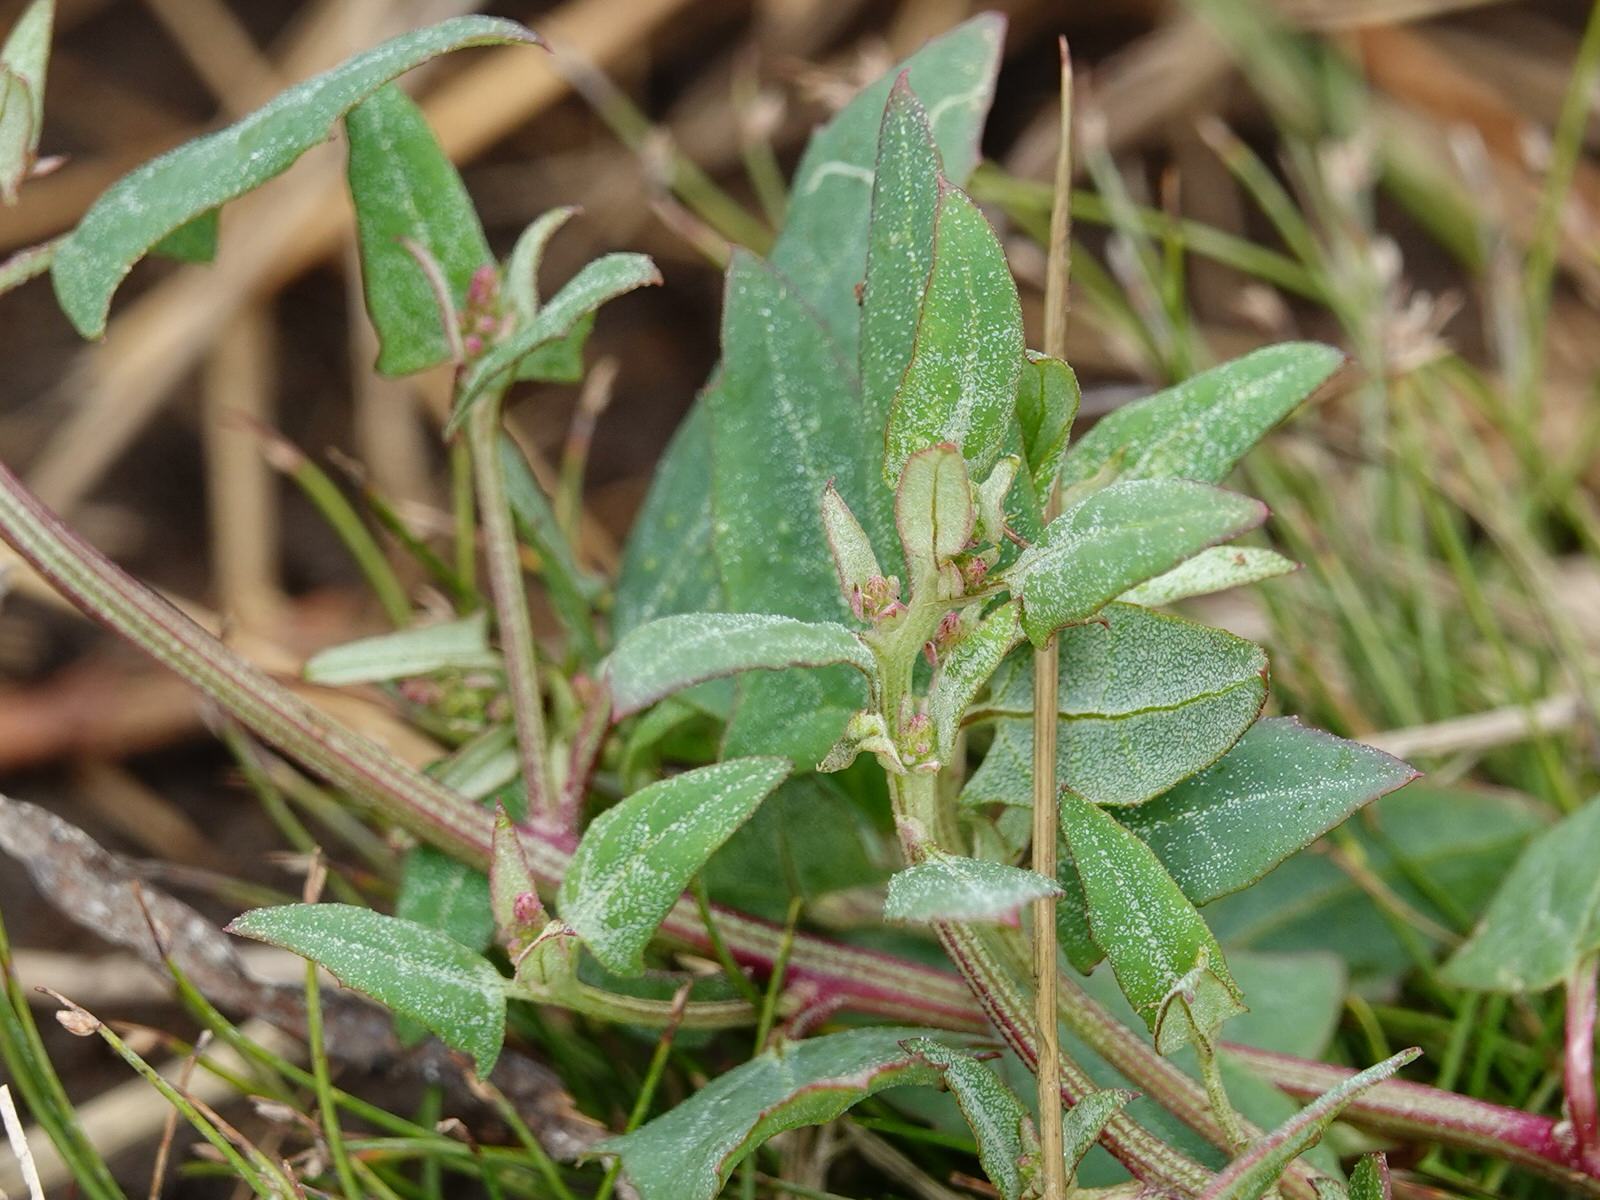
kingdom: Plantae
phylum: Tracheophyta
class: Magnoliopsida
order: Caryophyllales
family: Amaranthaceae
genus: Atriplex
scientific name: Atriplex prostrata
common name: Spear-leaved orache
